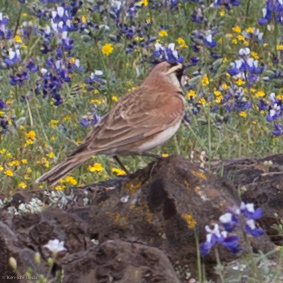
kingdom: Animalia
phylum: Chordata
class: Aves
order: Passeriformes
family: Alaudidae
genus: Eremophila
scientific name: Eremophila alpestris
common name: Horned lark
